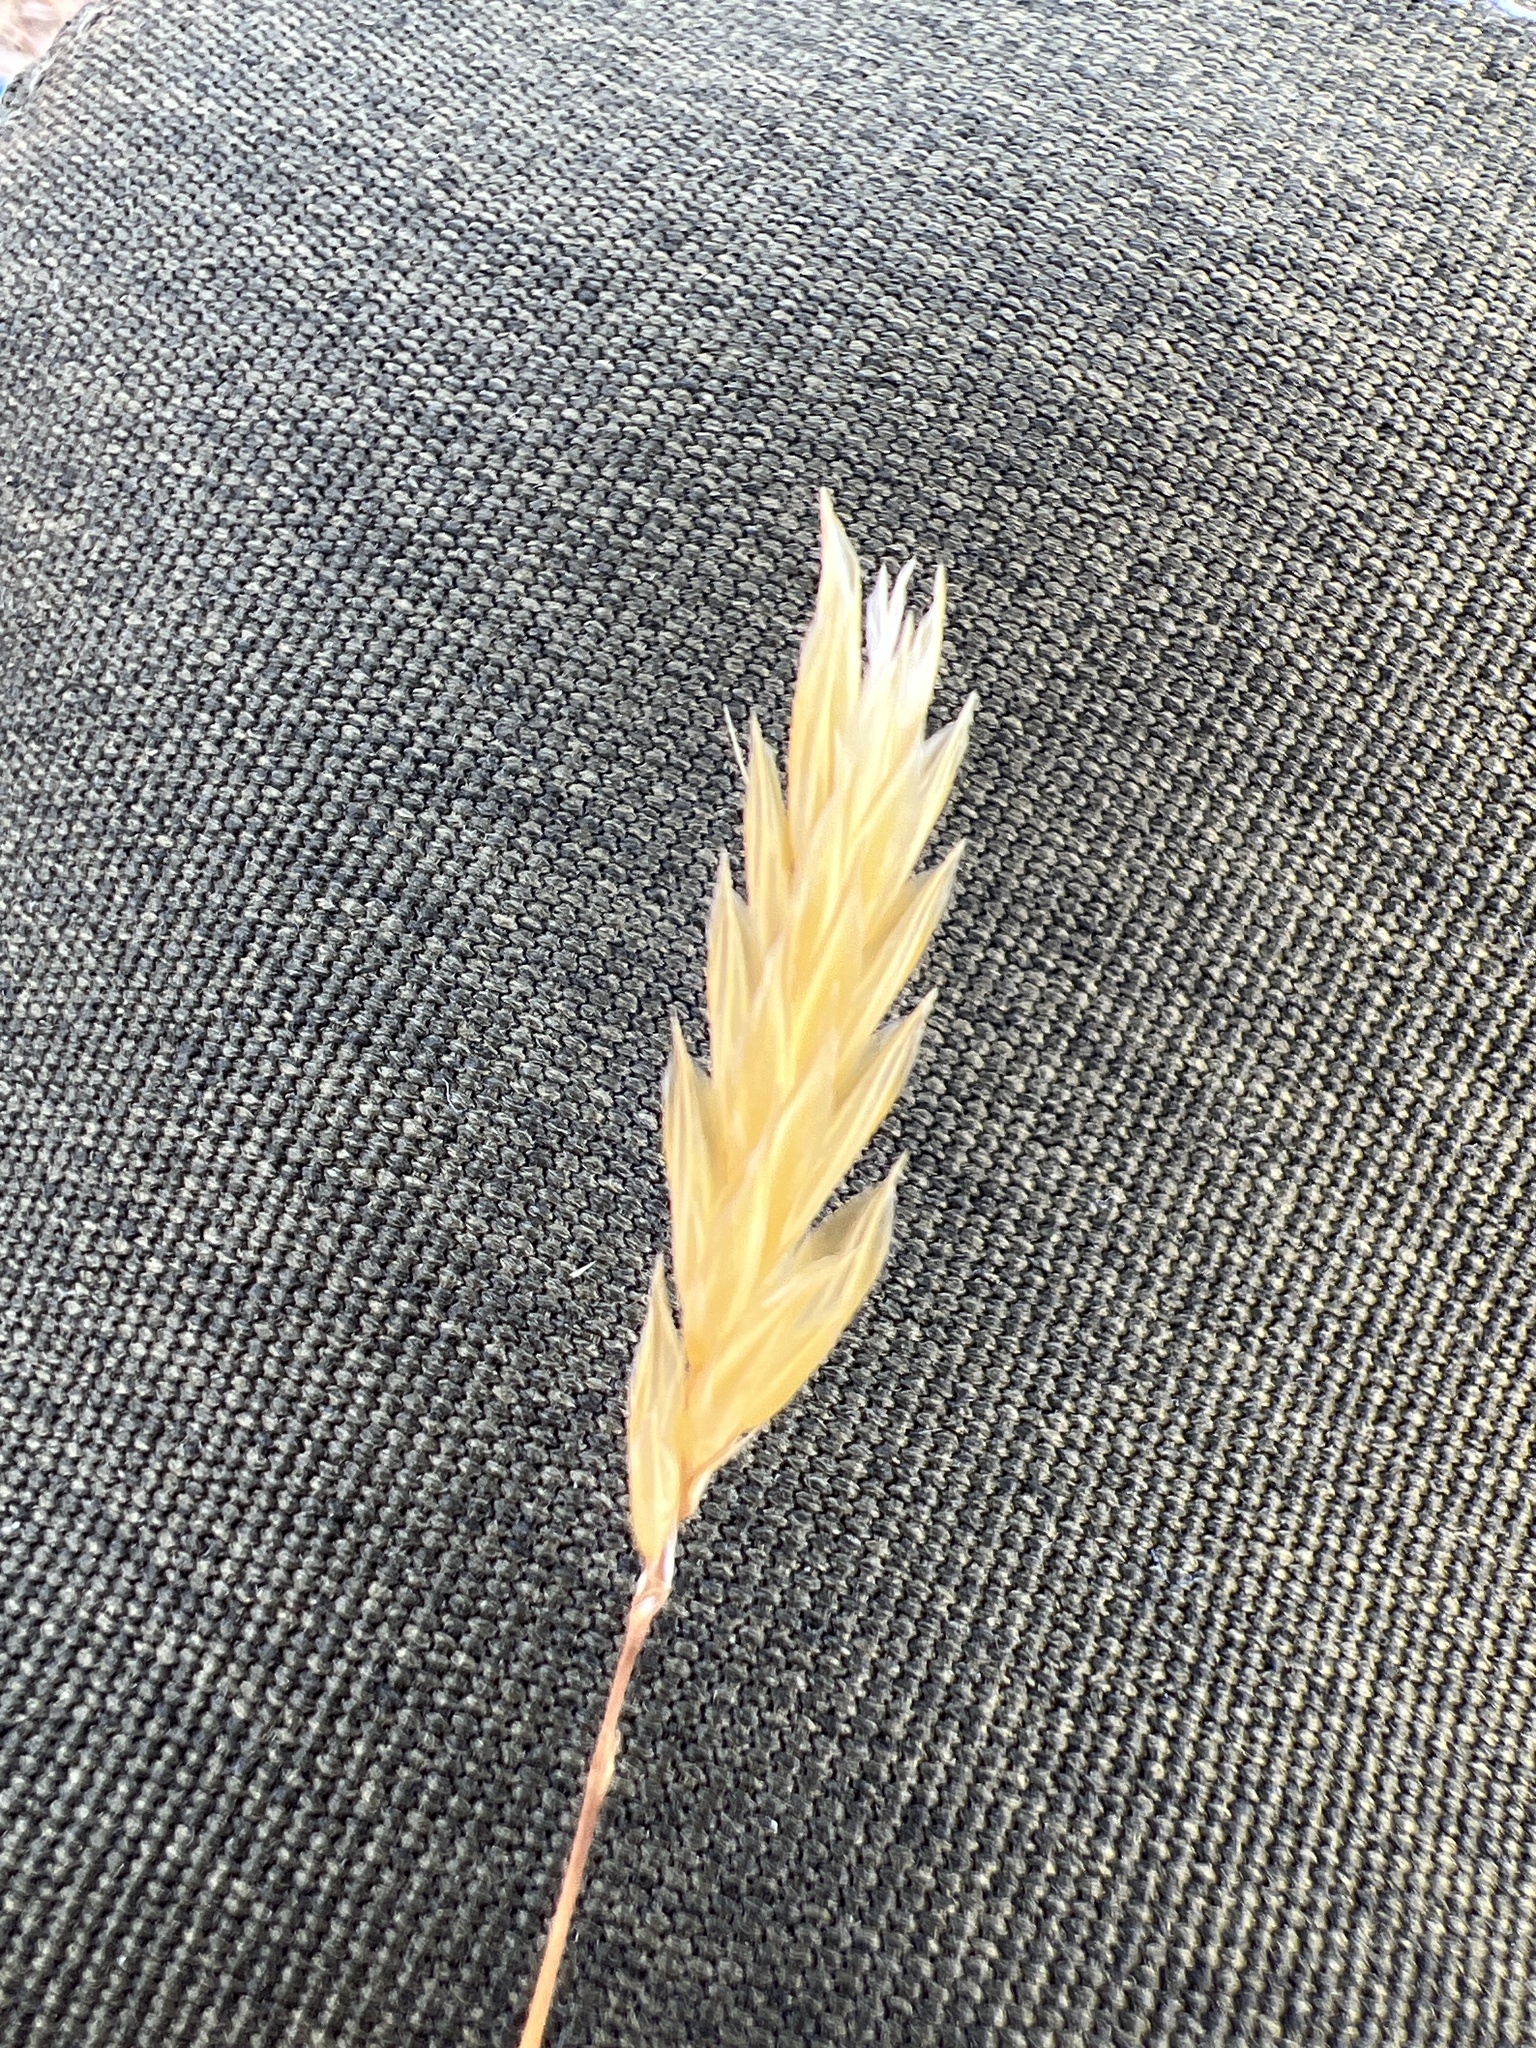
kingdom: Plantae
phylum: Tracheophyta
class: Liliopsida
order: Poales
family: Poaceae
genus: Anthoxanthum
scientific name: Anthoxanthum odoratum
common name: Sweet vernalgrass
